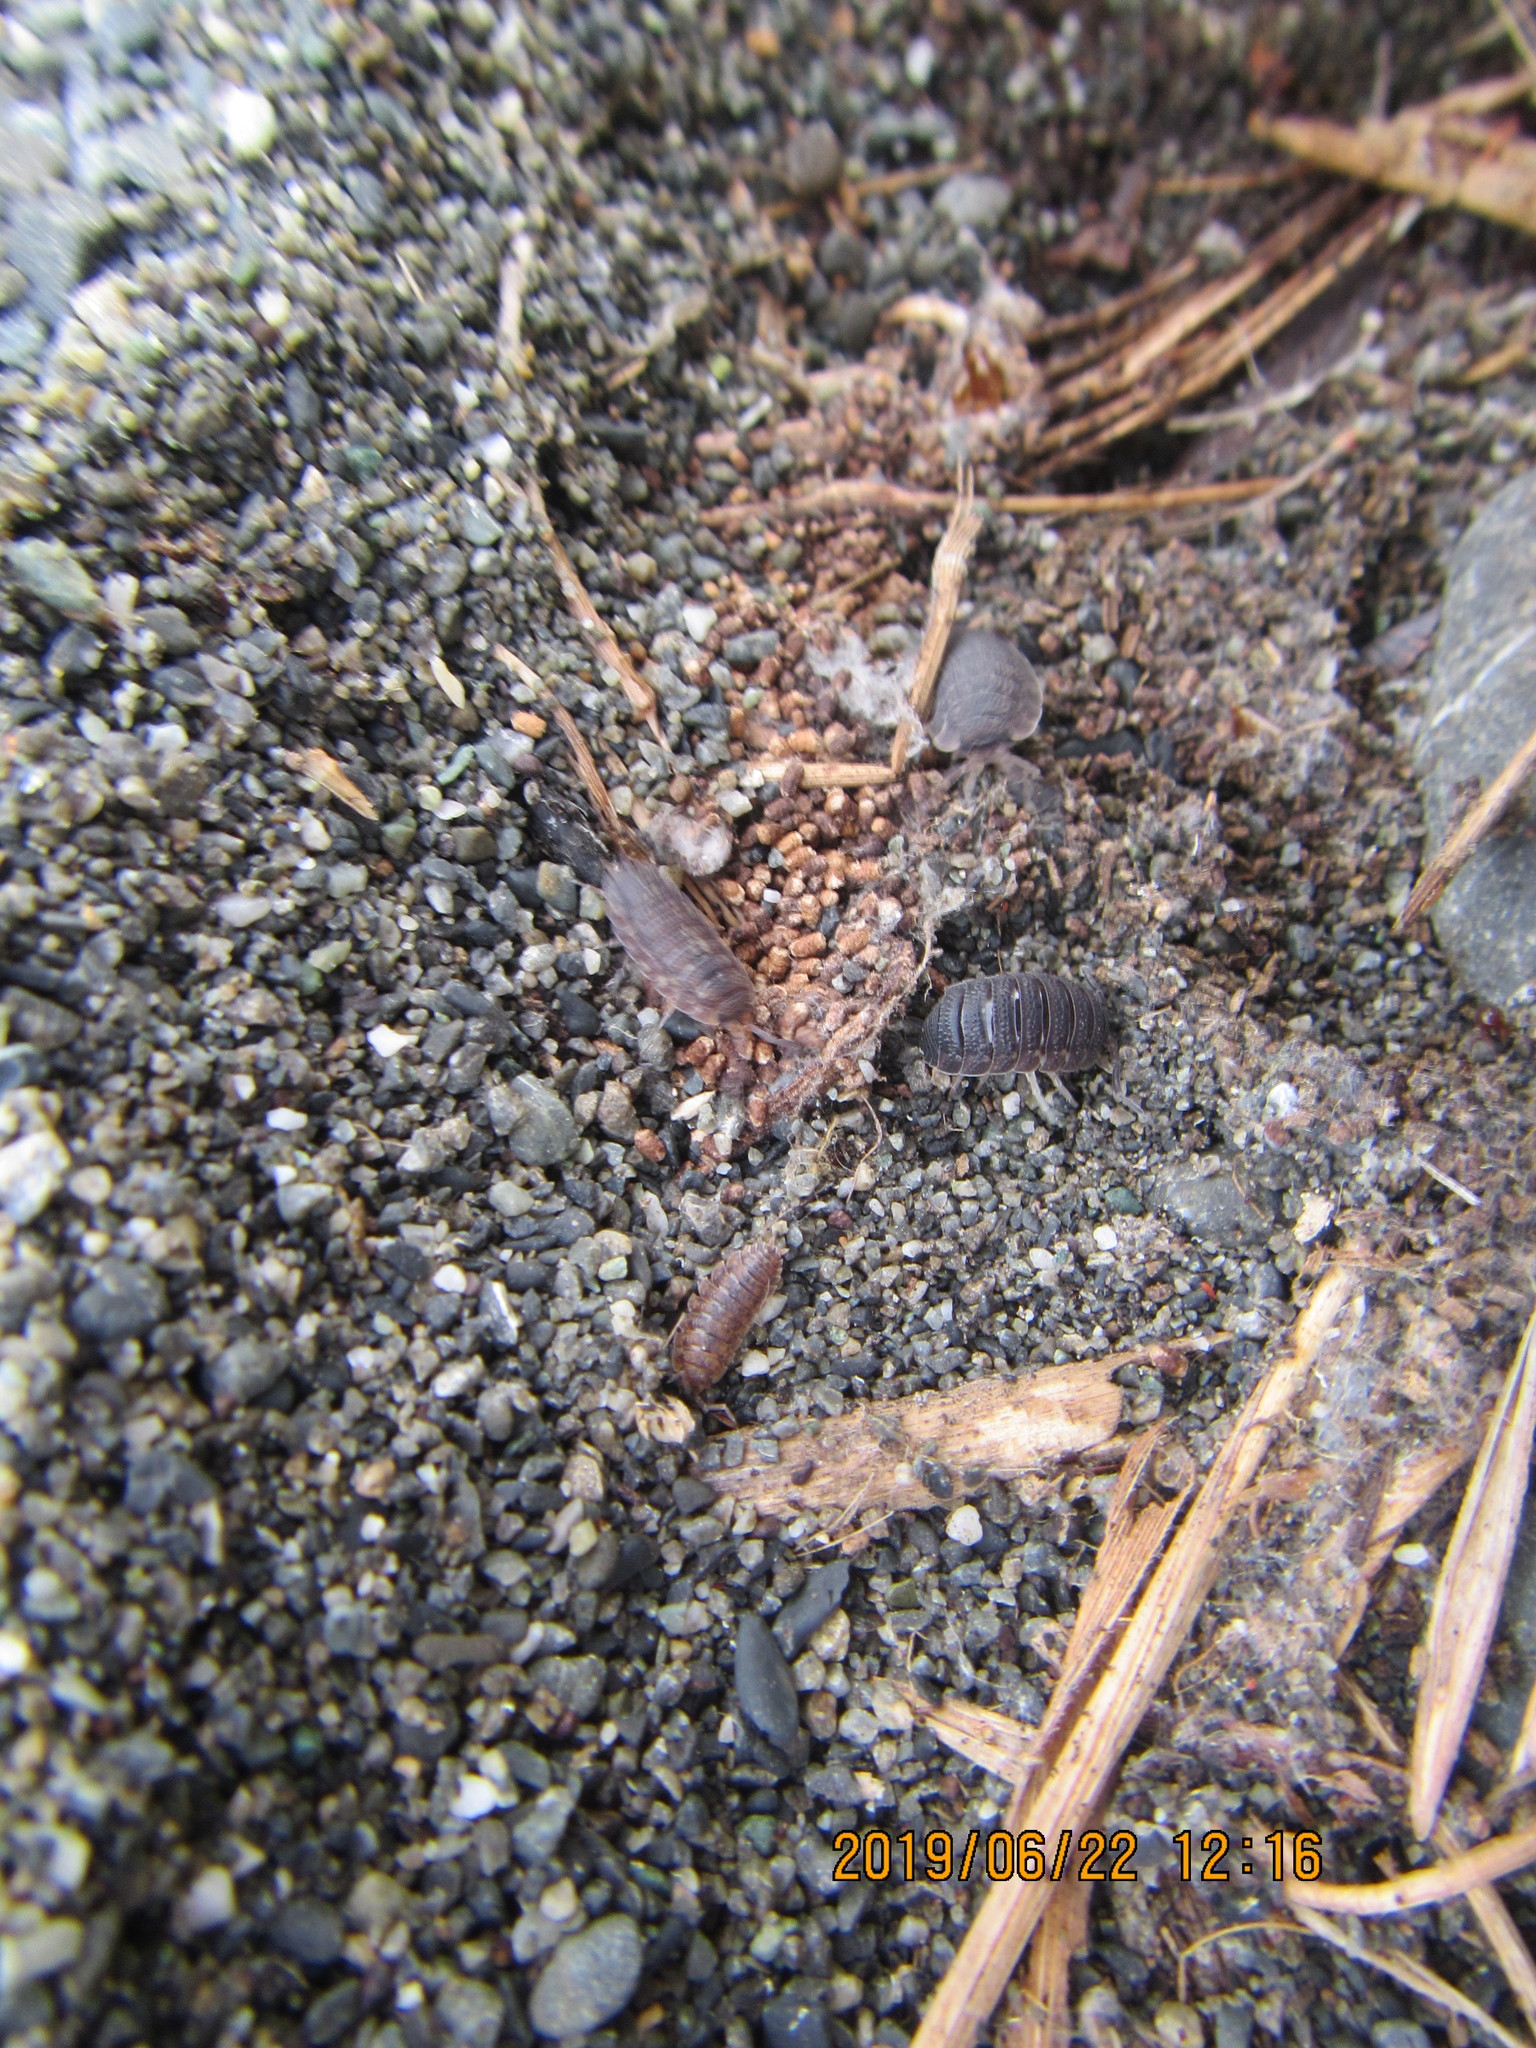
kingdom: Animalia
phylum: Arthropoda
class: Malacostraca
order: Isopoda
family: Porcellionidae
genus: Porcellio
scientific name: Porcellio scaber
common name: Common rough woodlouse
